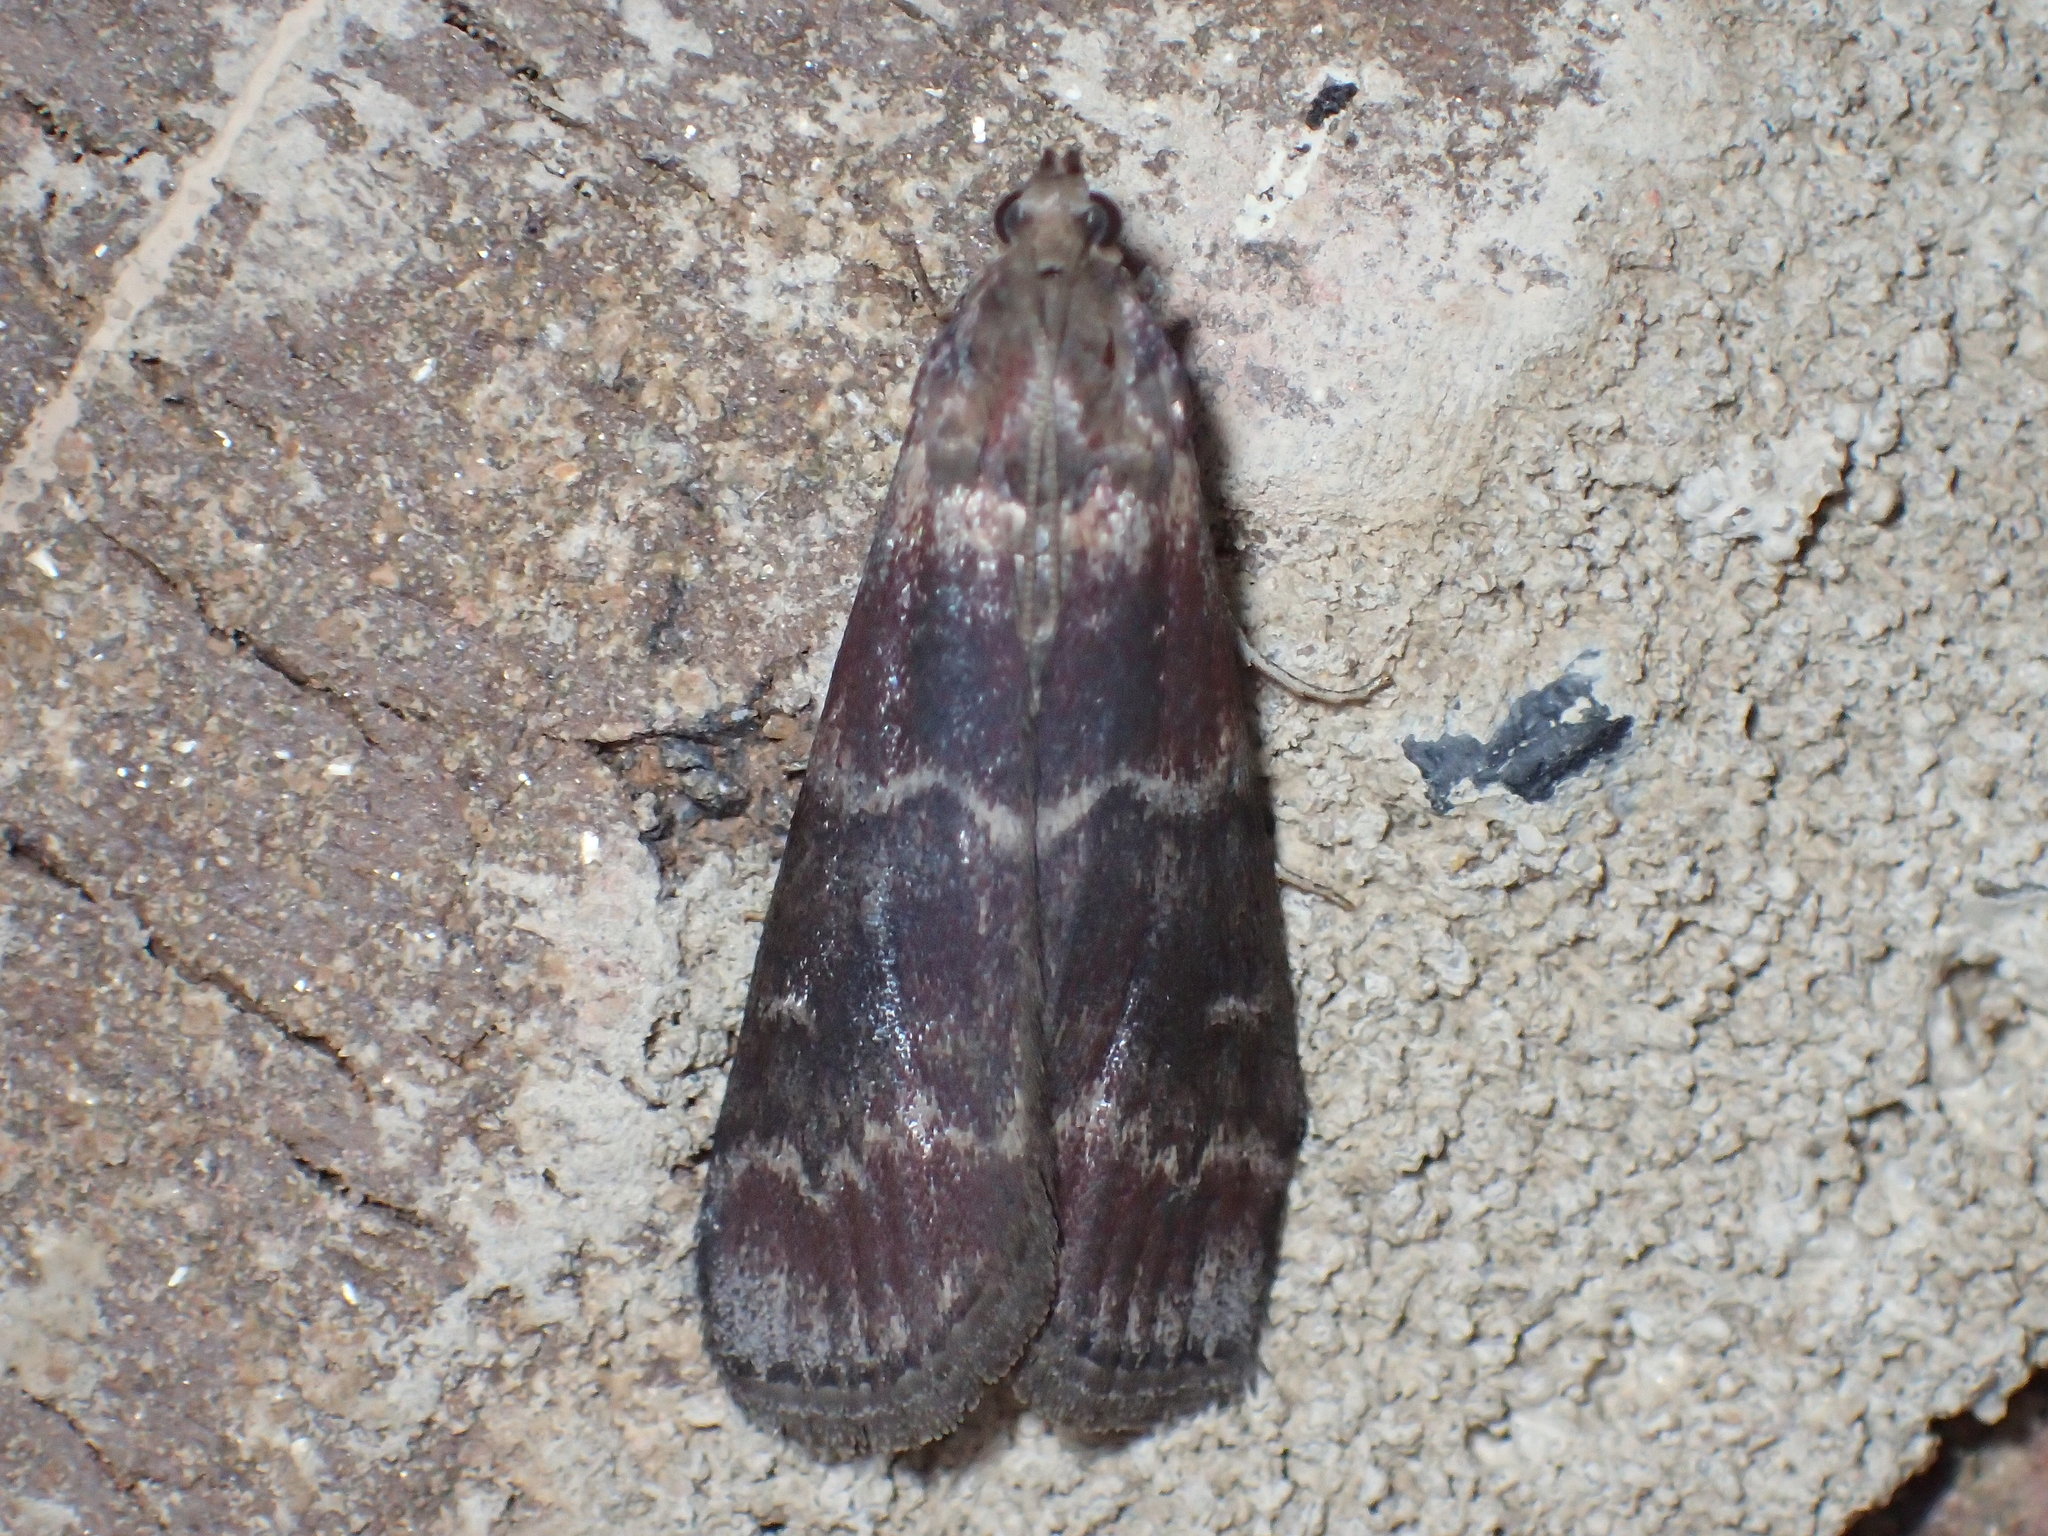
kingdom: Animalia
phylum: Arthropoda
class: Insecta
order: Lepidoptera
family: Pyralidae
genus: Euzophera
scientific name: Euzophera ostricolorella
